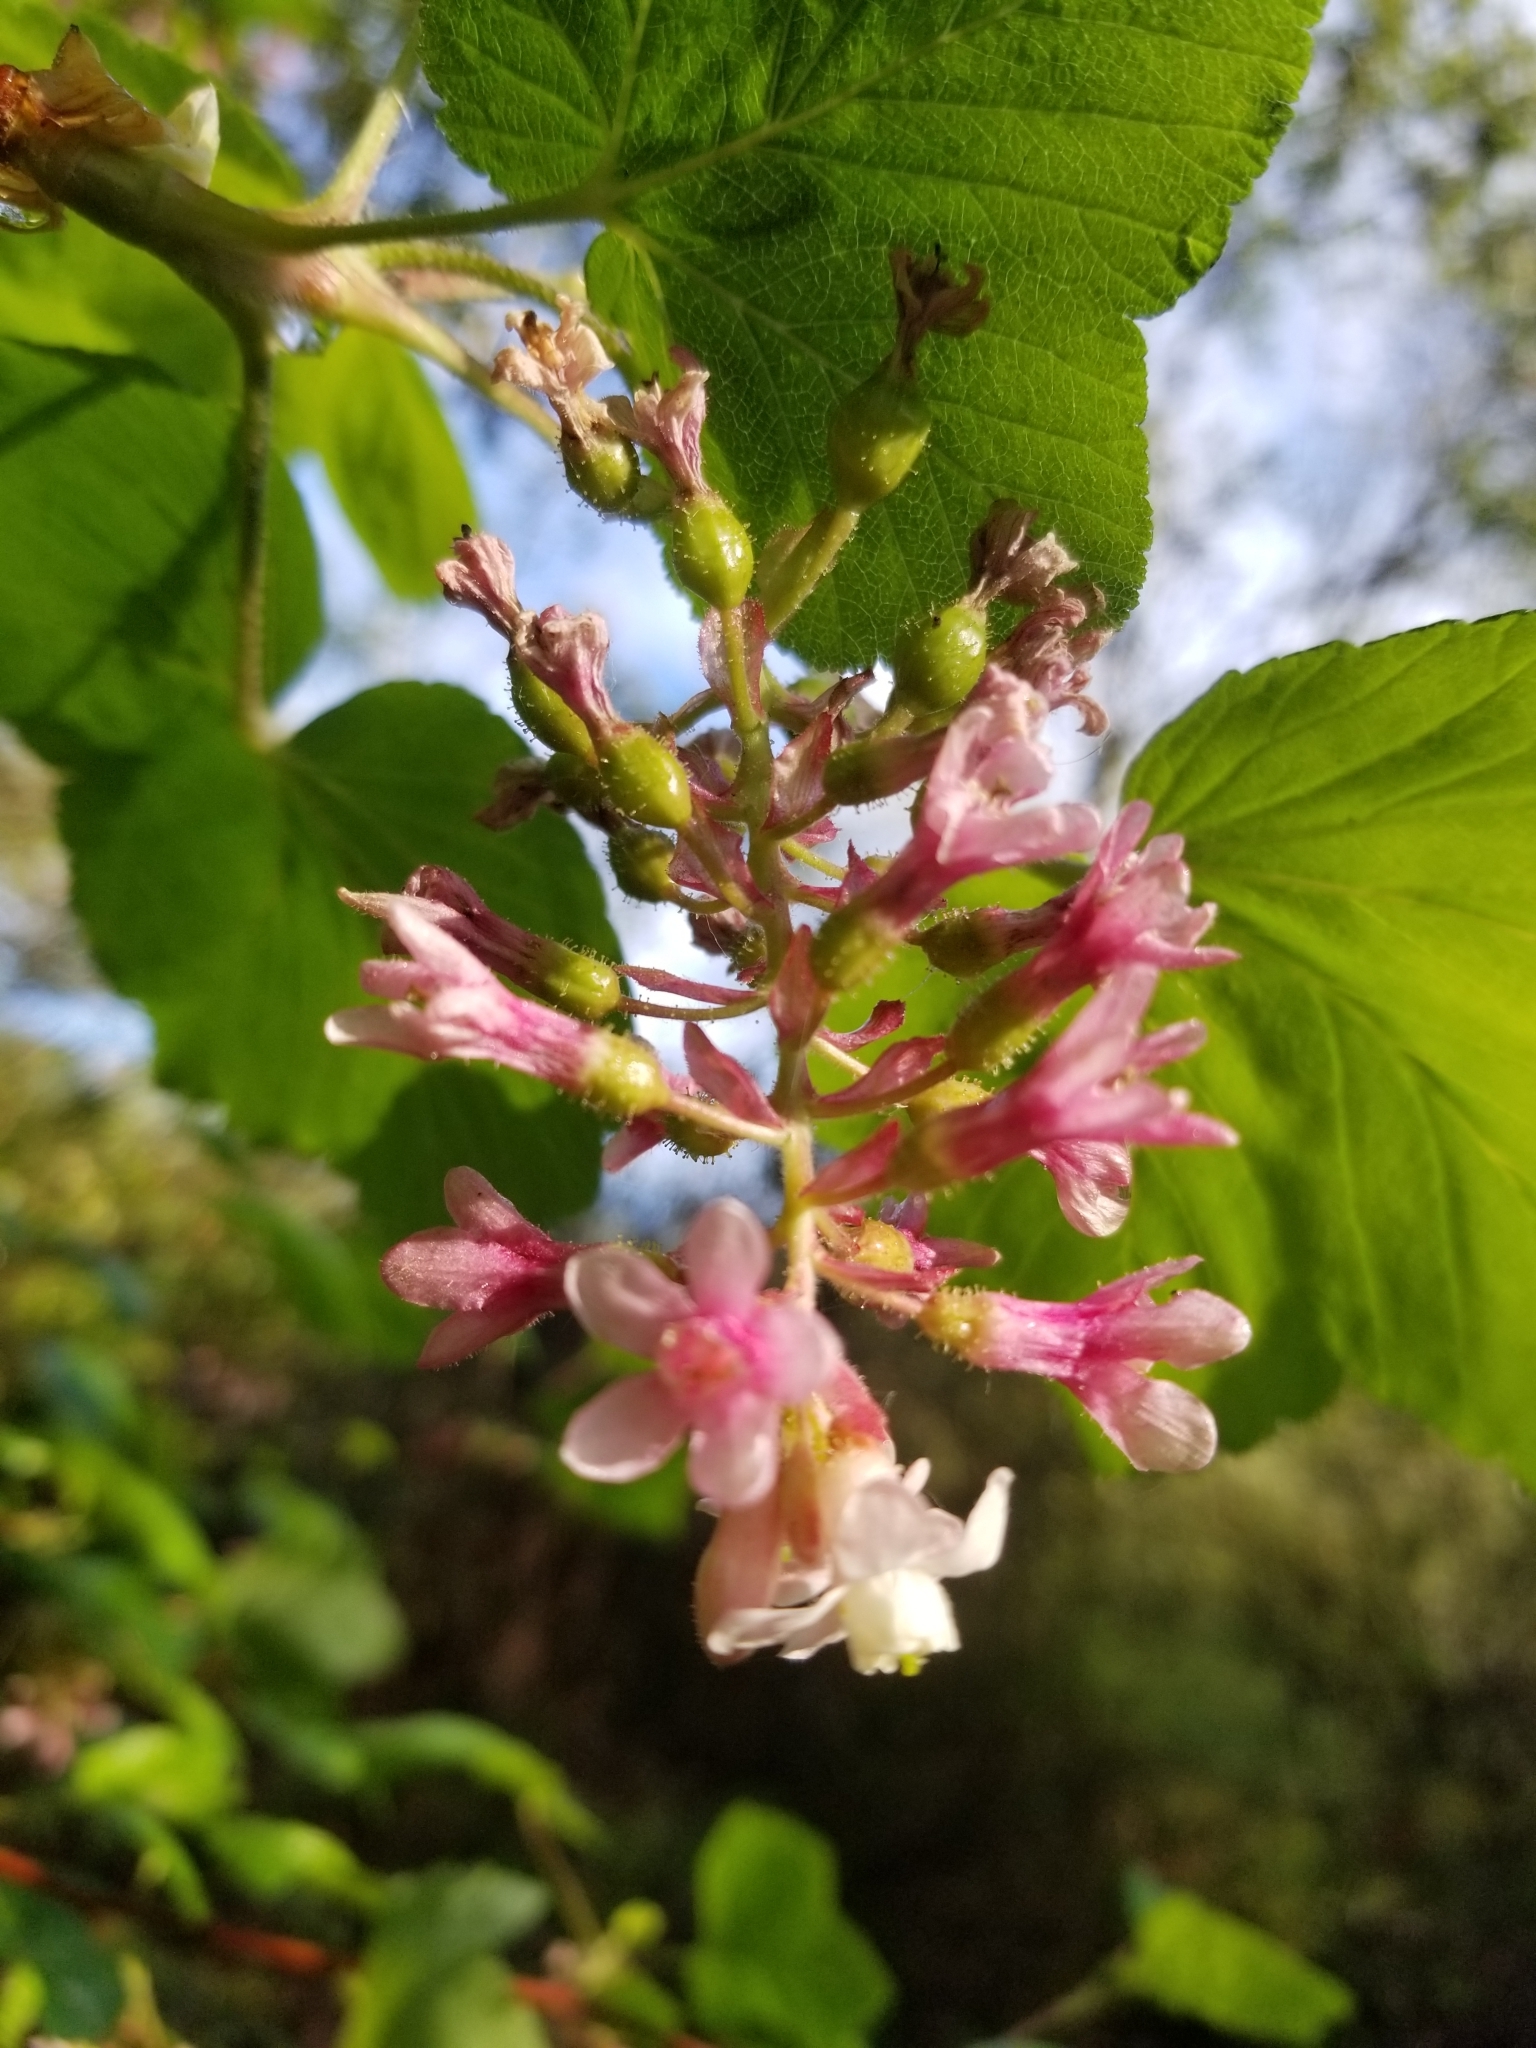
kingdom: Plantae
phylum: Tracheophyta
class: Magnoliopsida
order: Saxifragales
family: Grossulariaceae
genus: Ribes
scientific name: Ribes sanguineum
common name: Flowering currant
